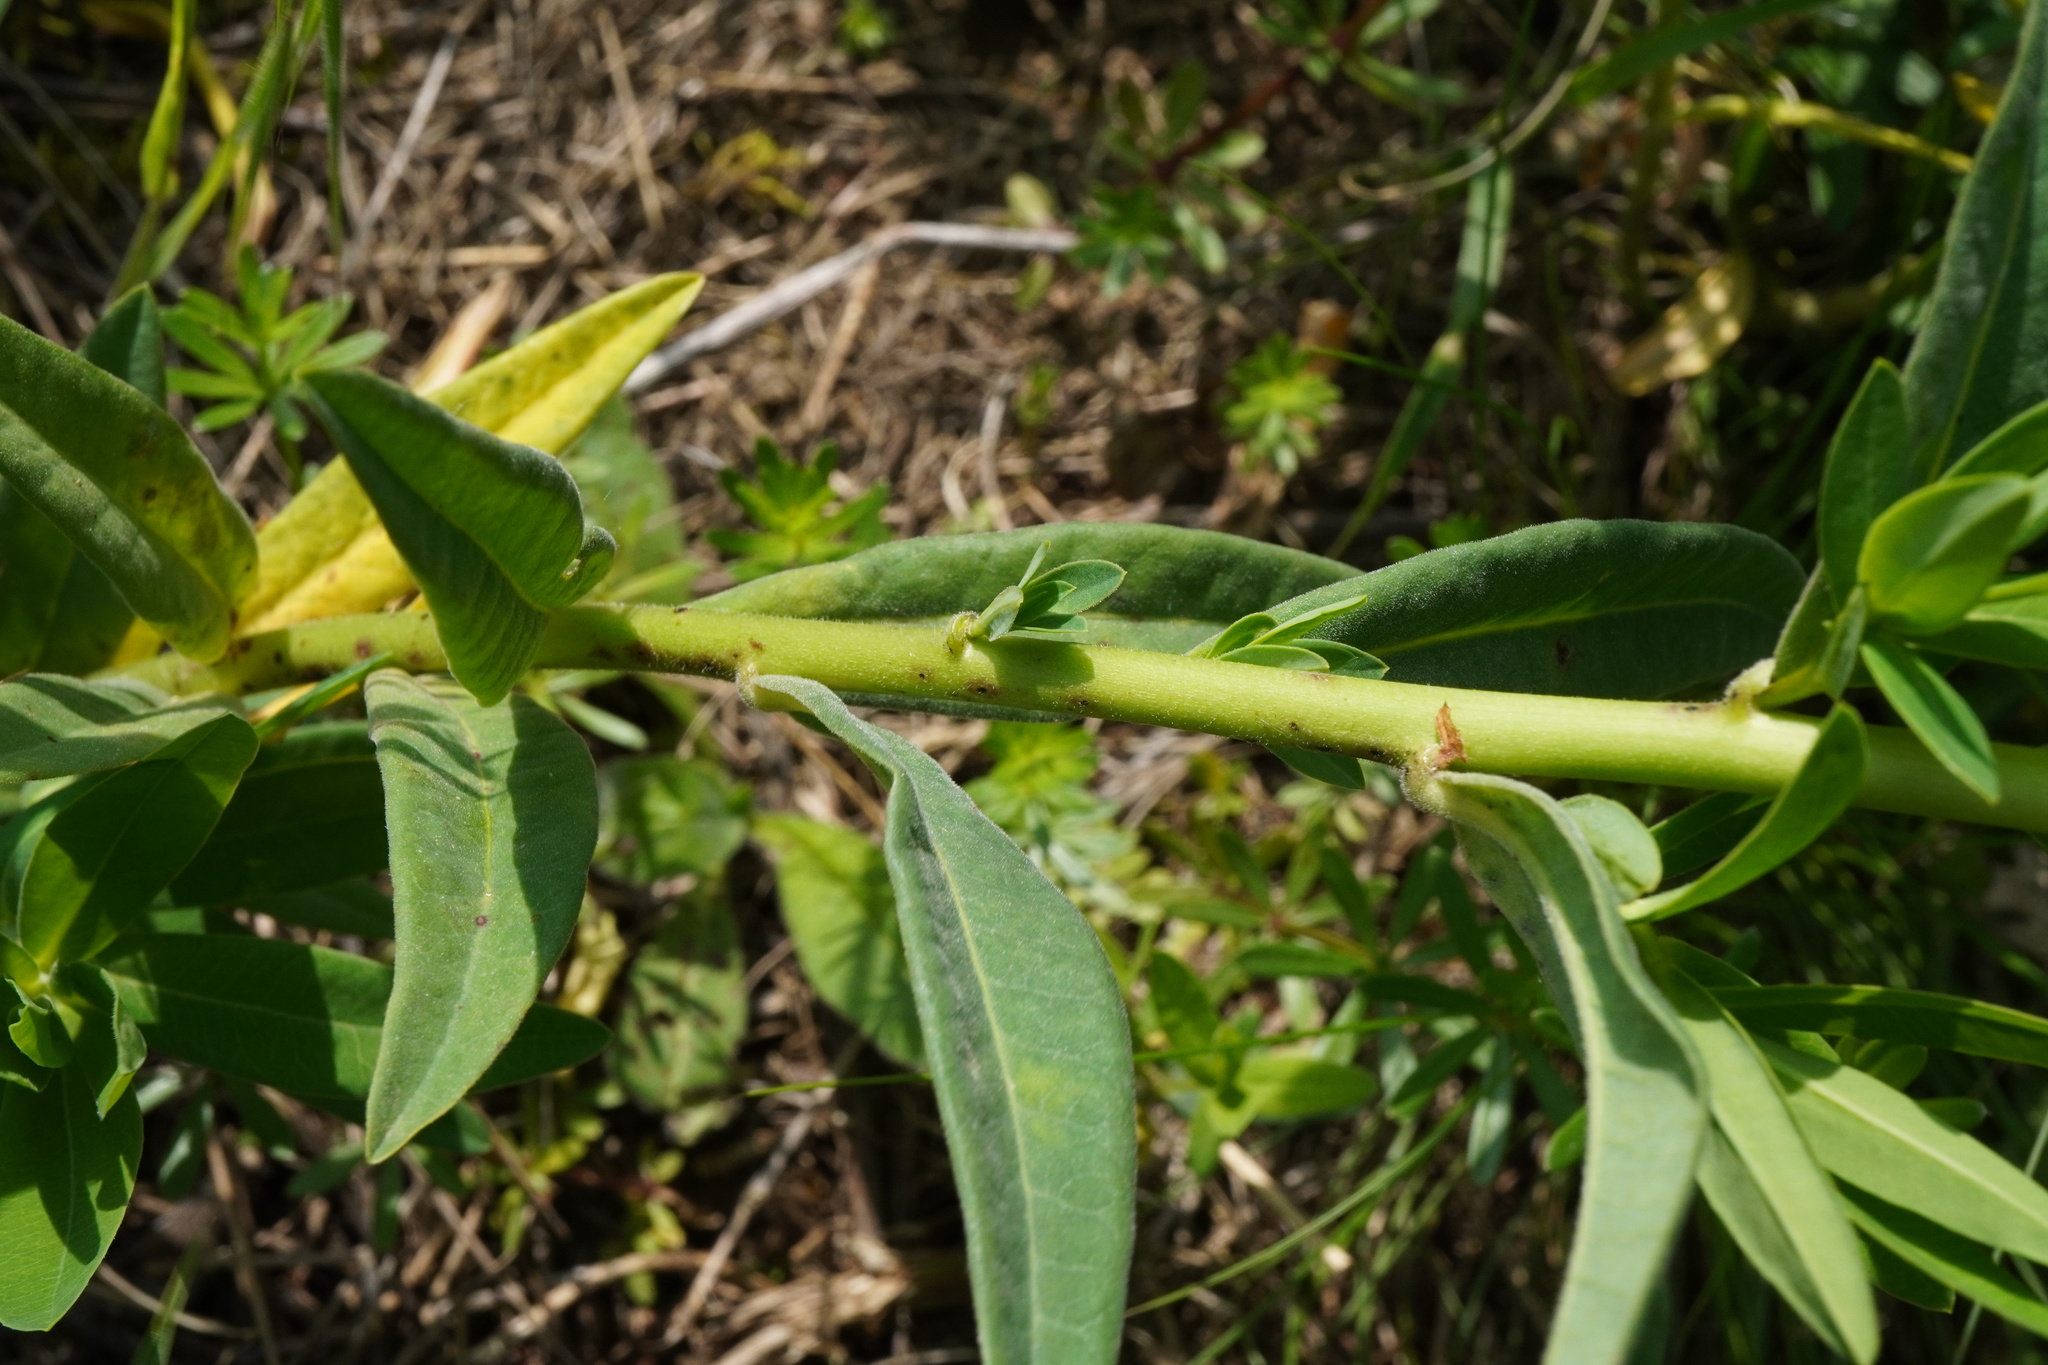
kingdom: Plantae
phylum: Tracheophyta
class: Magnoliopsida
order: Malpighiales
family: Euphorbiaceae
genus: Euphorbia
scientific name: Euphorbia salicifolia
